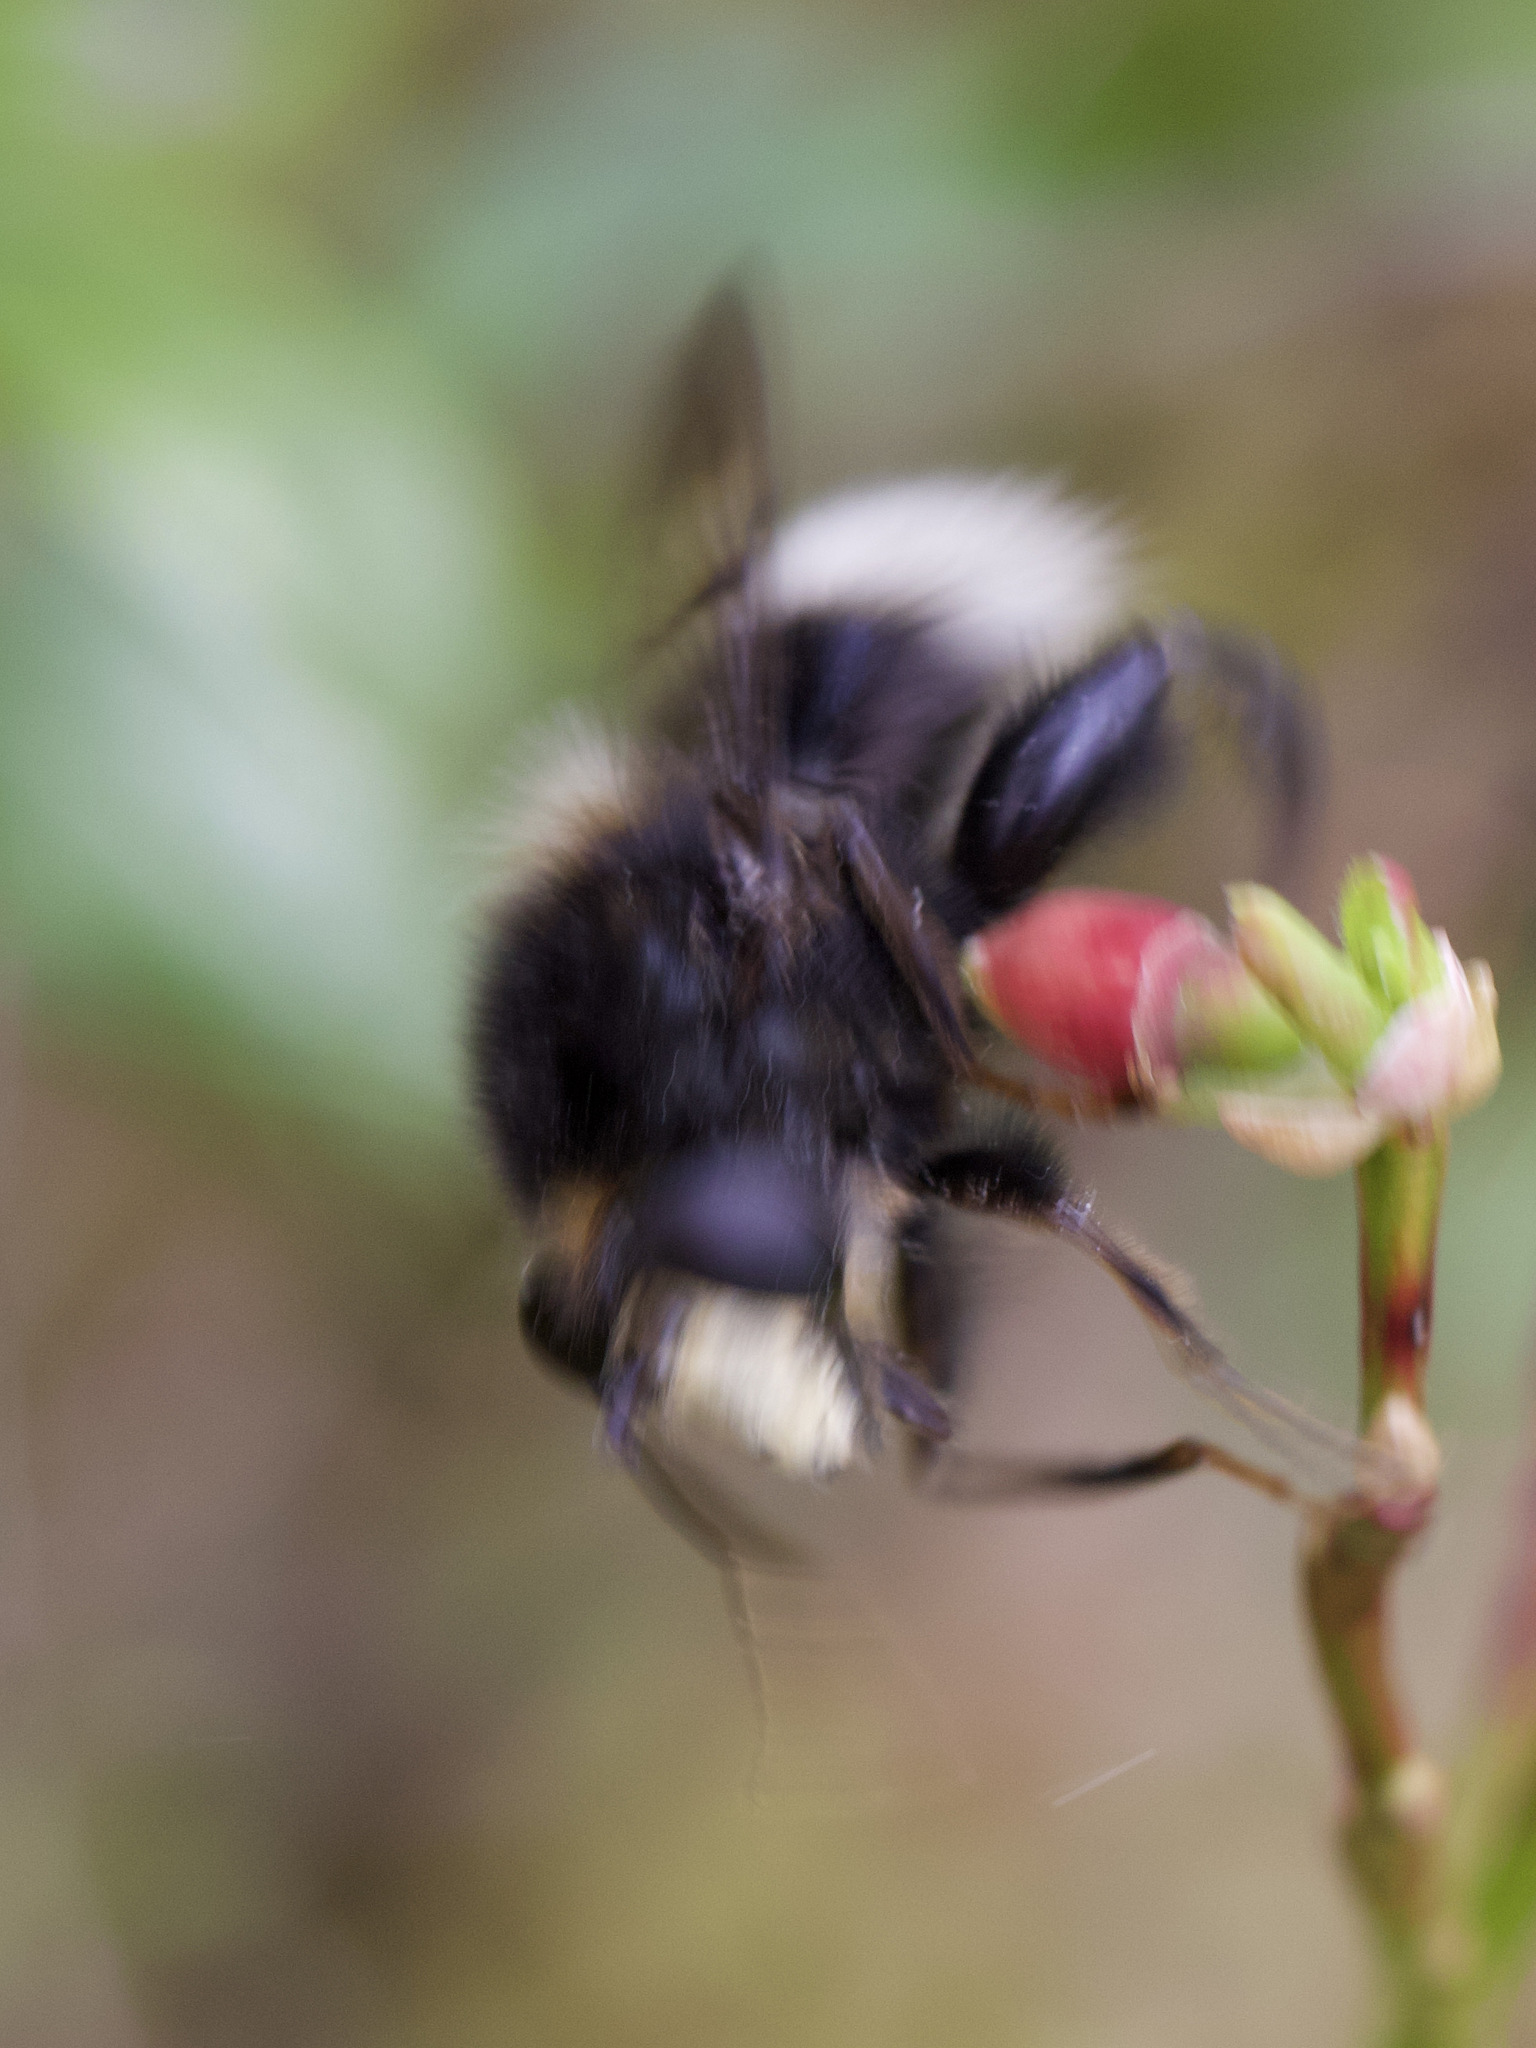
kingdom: Animalia
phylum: Arthropoda
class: Insecta
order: Diptera
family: Syrphidae
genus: Criorhina
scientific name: Criorhina ranunculi
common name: Large bear hoverfly
